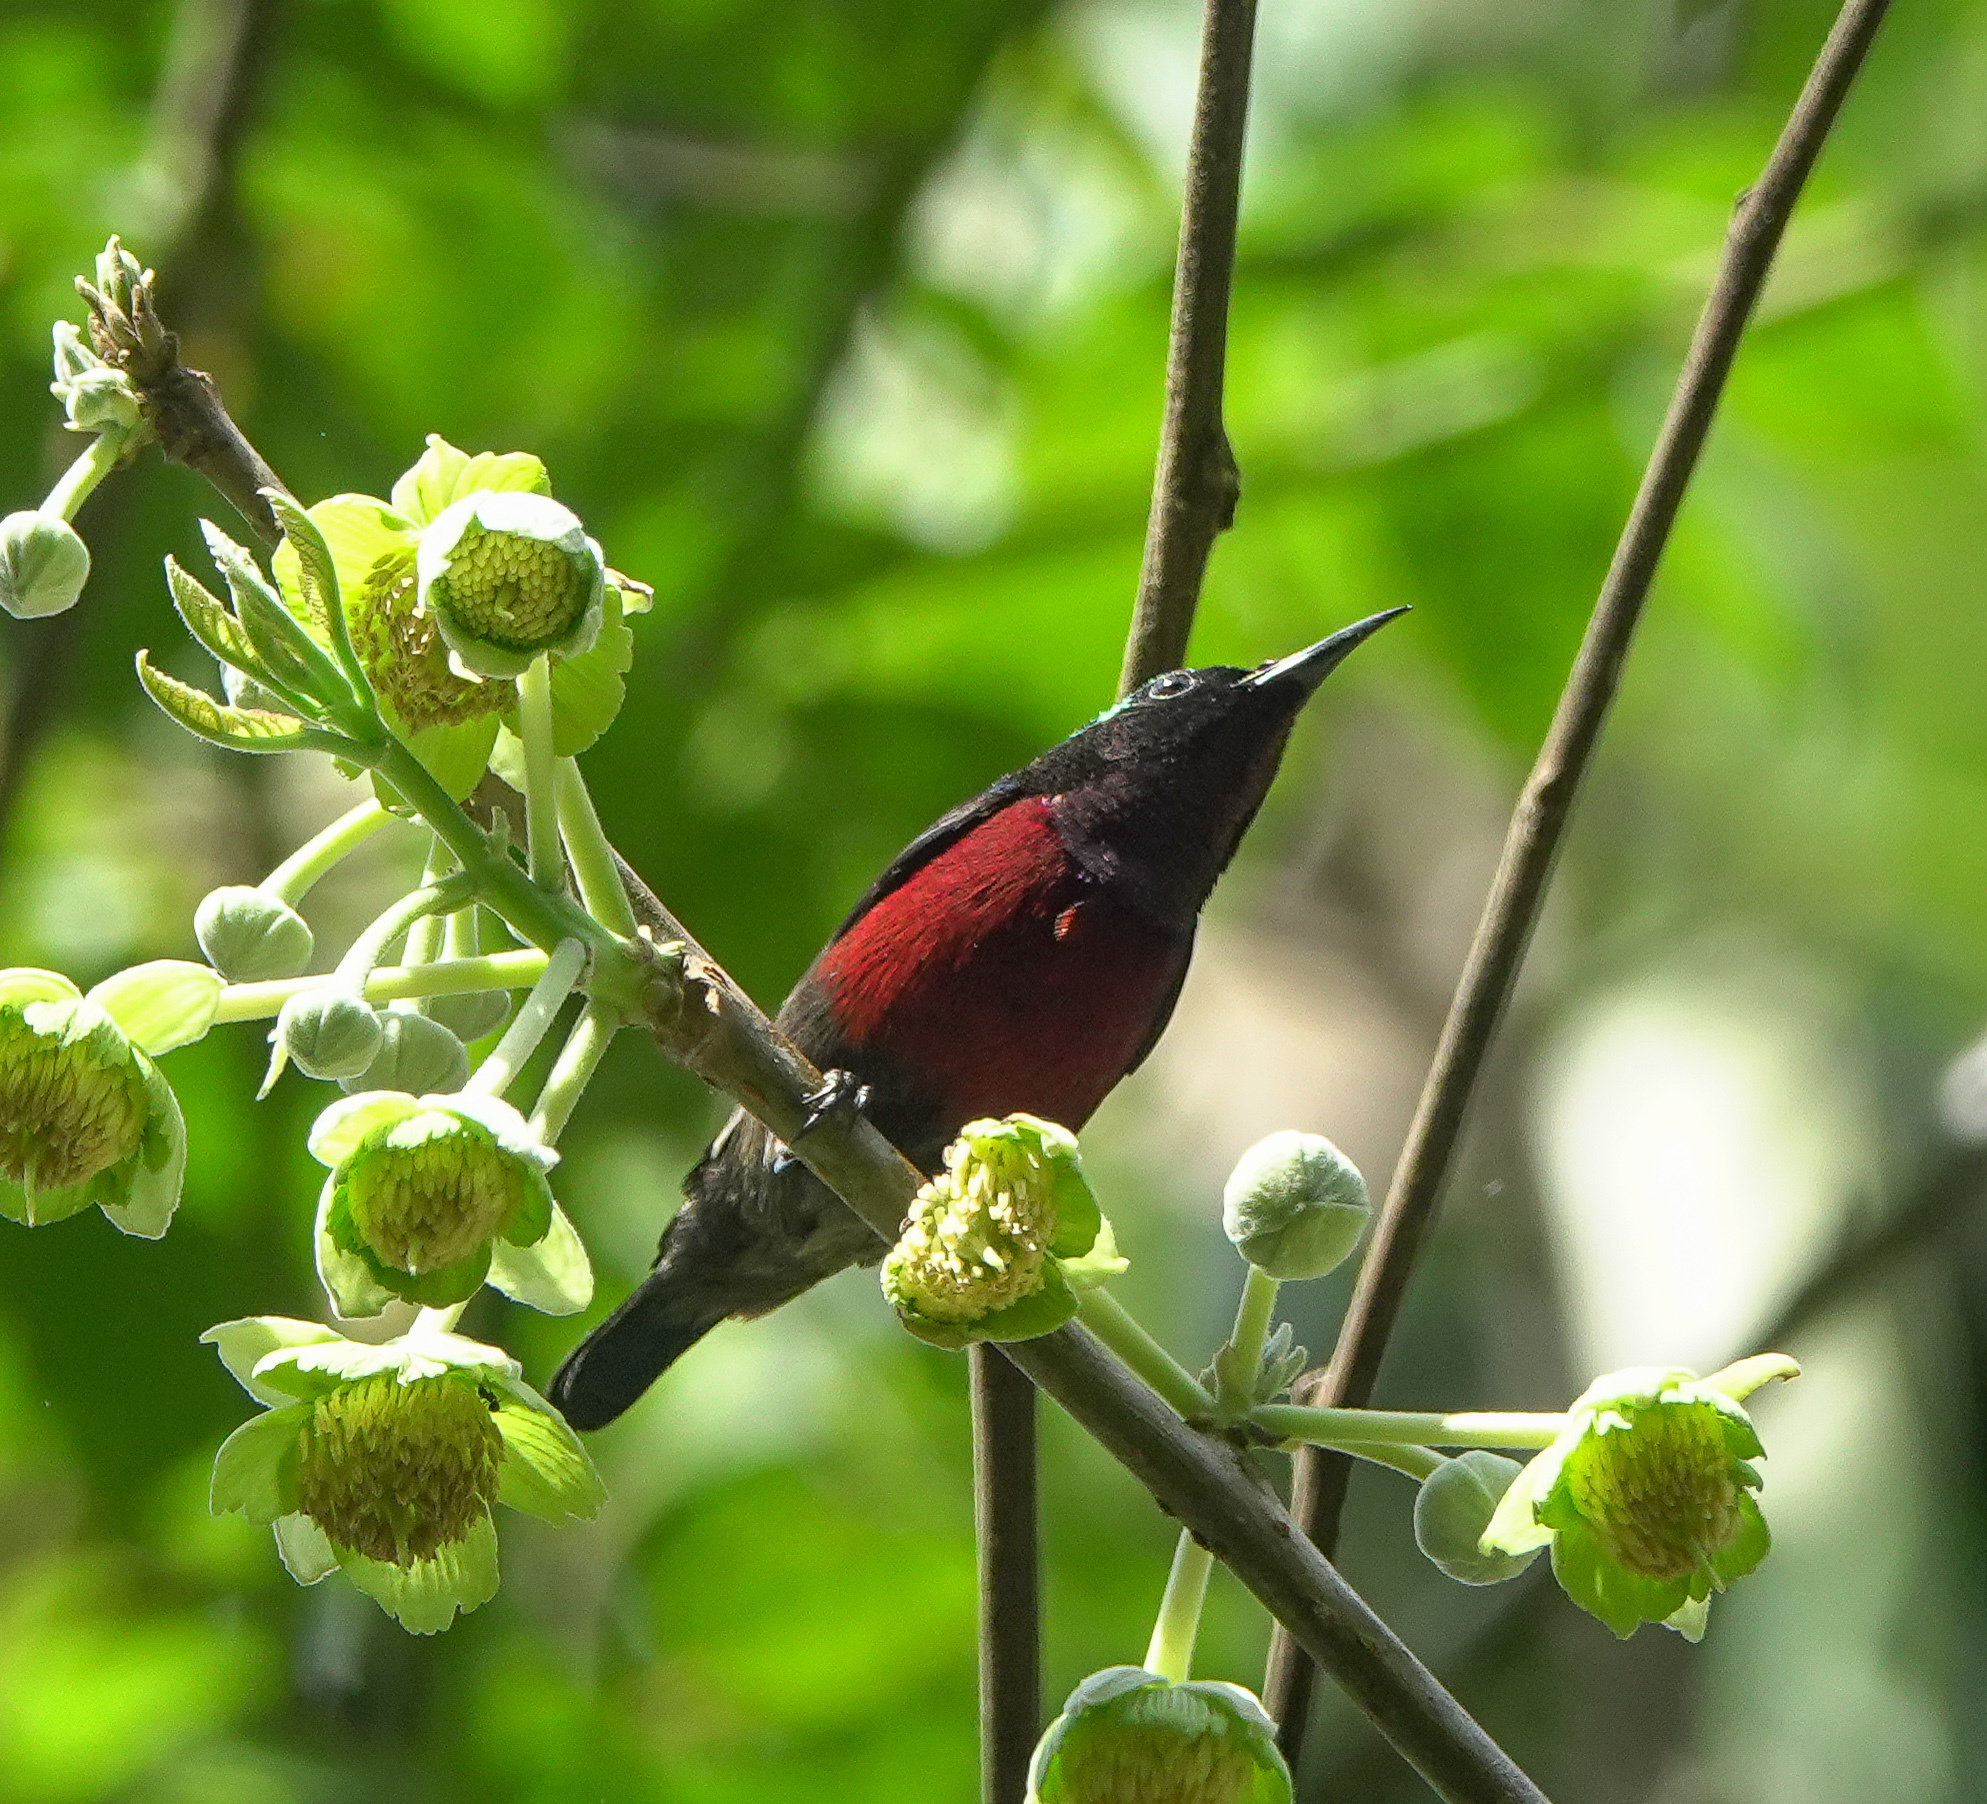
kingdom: Animalia
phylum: Chordata
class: Aves
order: Passeriformes
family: Nectariniidae
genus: Leptocoma
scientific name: Leptocoma brasiliana
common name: Van hasselt's sunbird
